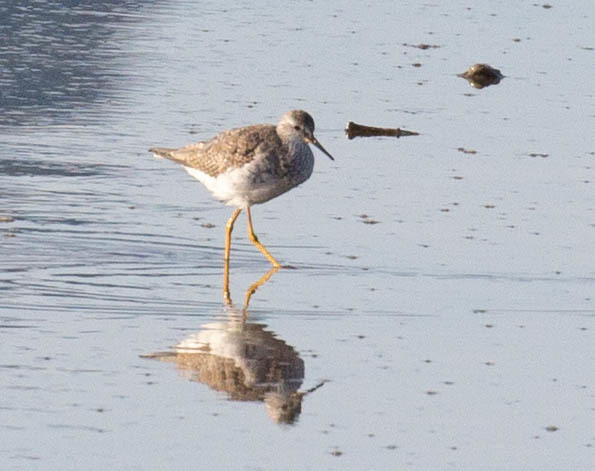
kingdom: Animalia
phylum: Chordata
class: Aves
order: Charadriiformes
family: Scolopacidae
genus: Tringa
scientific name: Tringa flavipes
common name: Lesser yellowlegs
